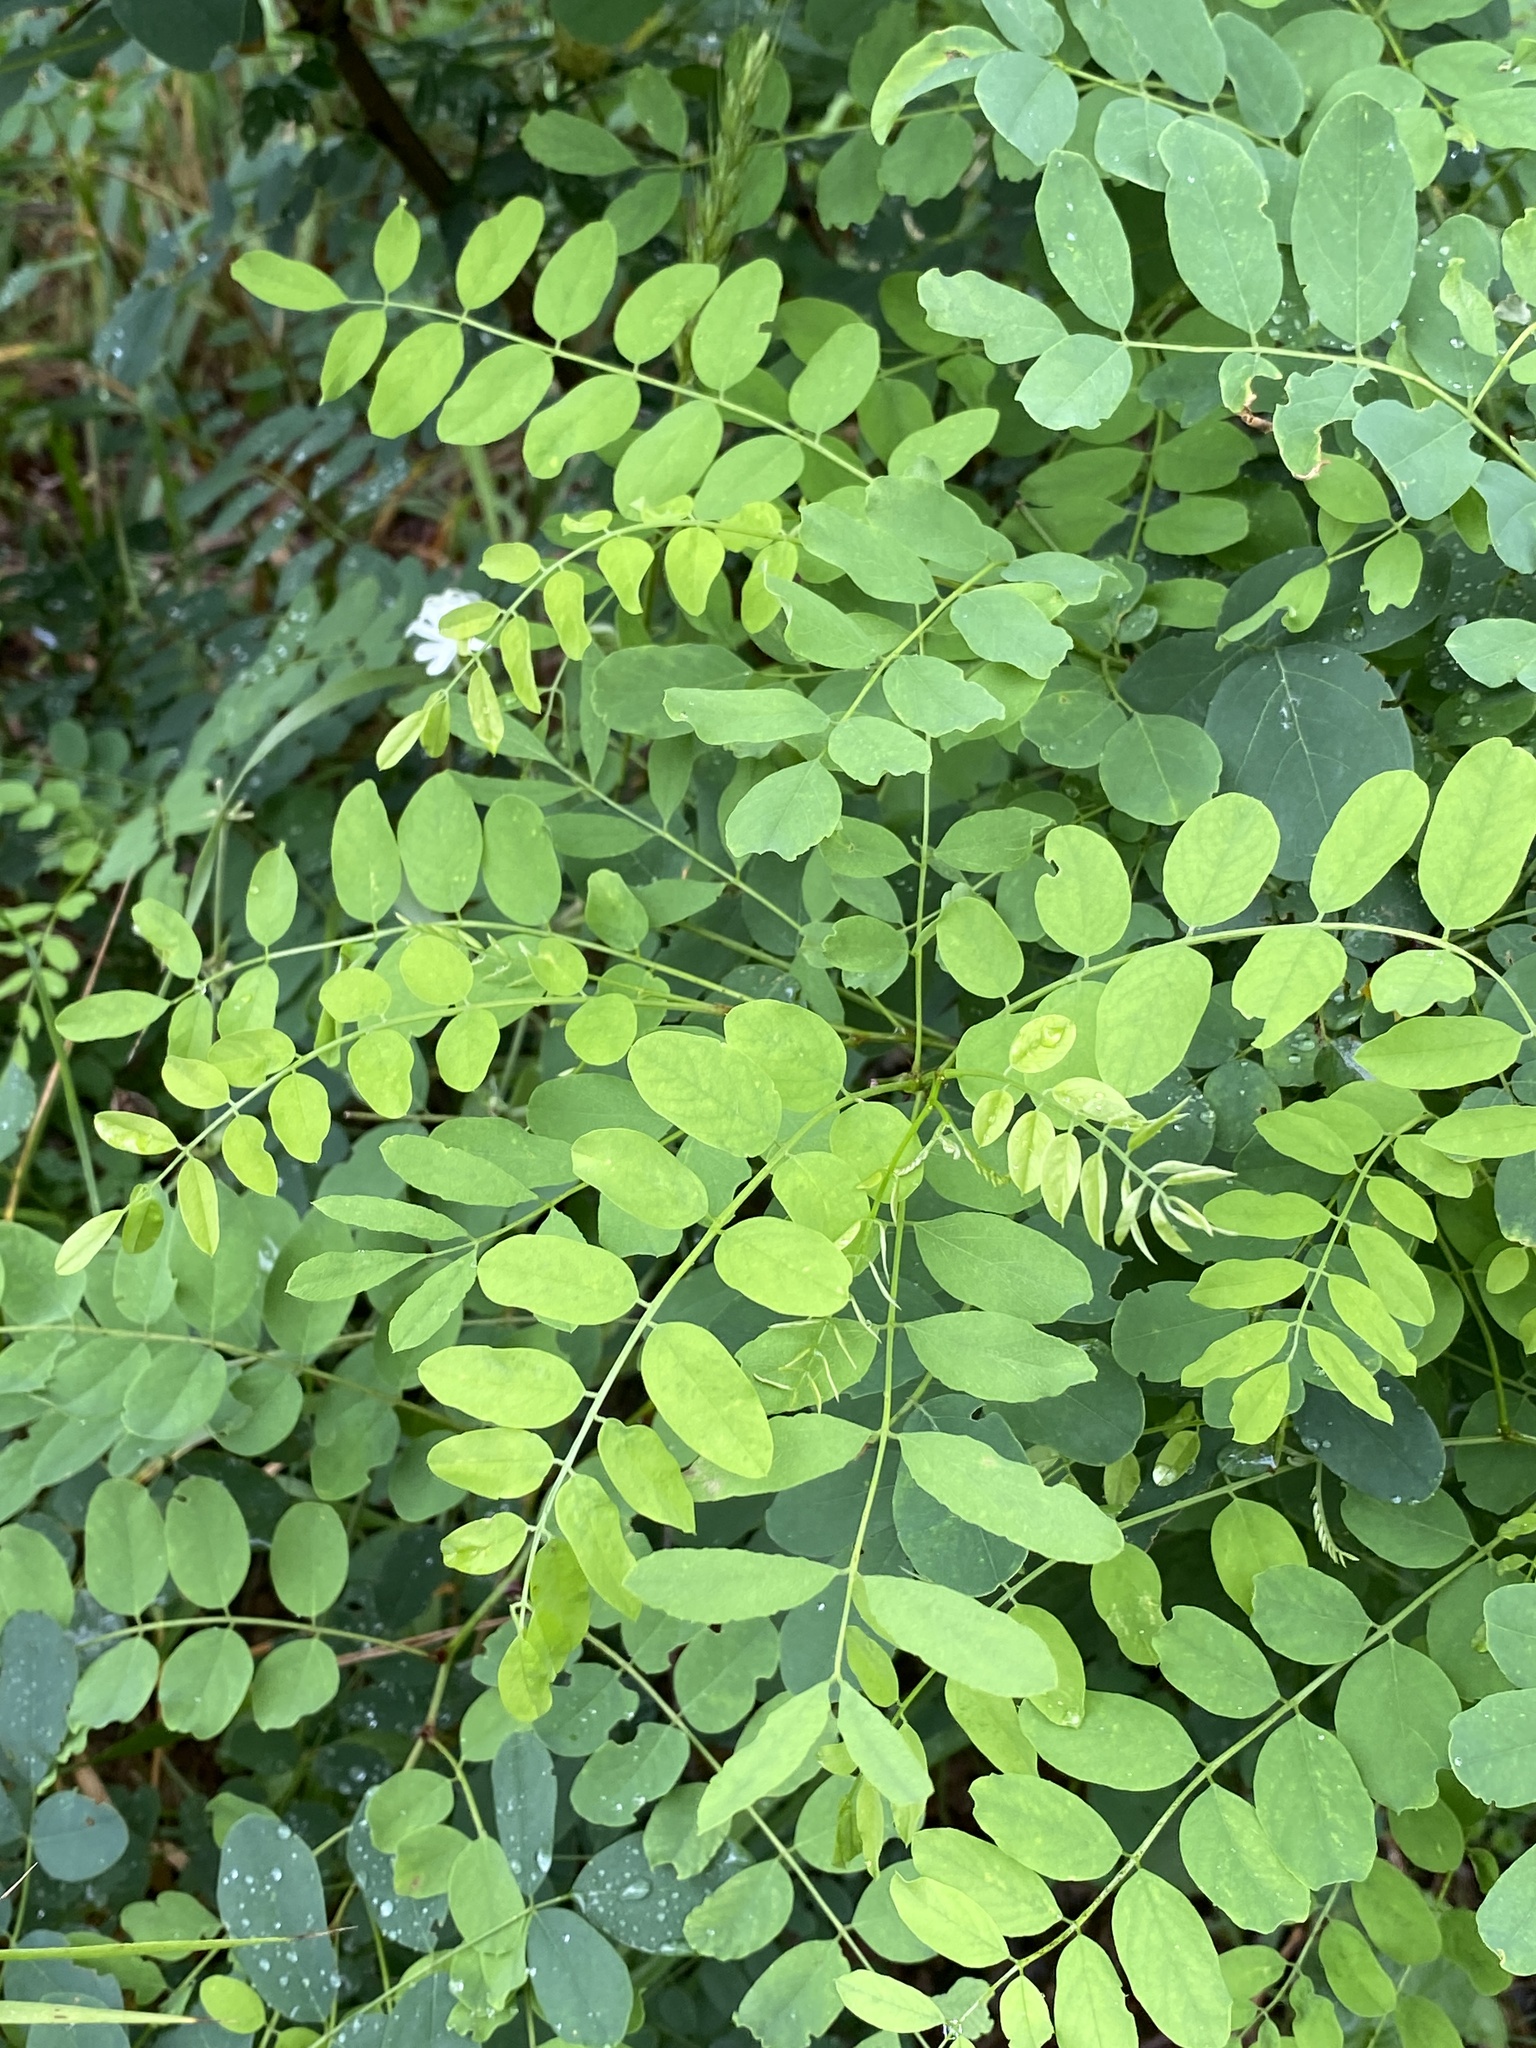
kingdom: Plantae
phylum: Tracheophyta
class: Magnoliopsida
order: Fabales
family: Fabaceae
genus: Robinia
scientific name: Robinia pseudoacacia
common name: Black locust
